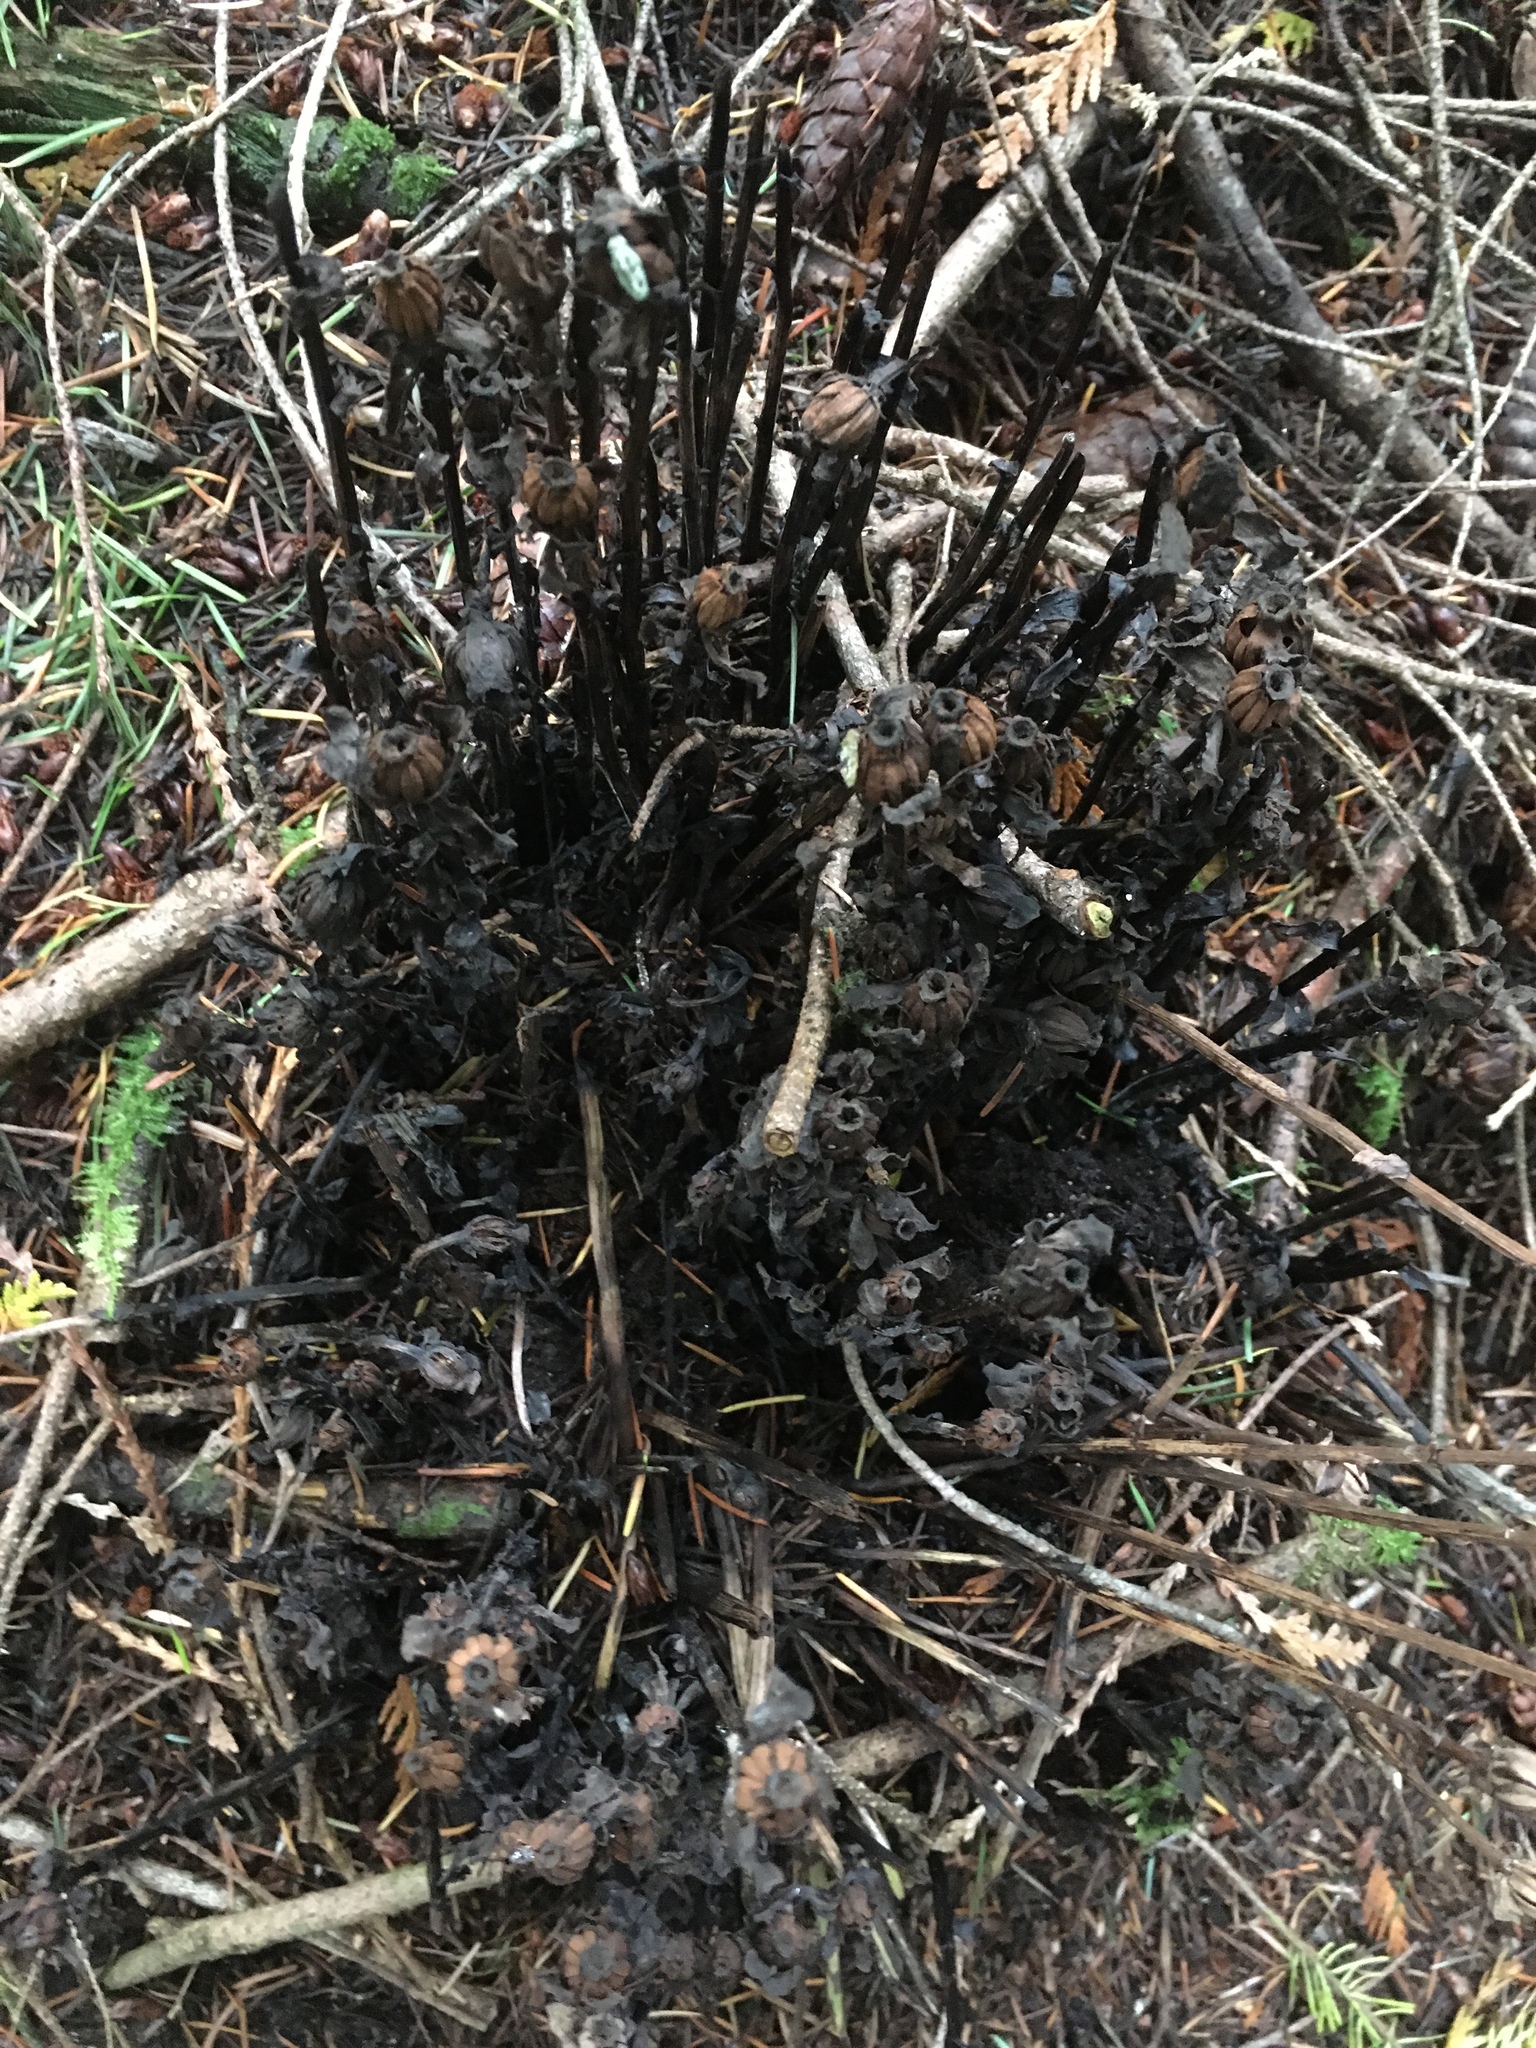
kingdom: Plantae
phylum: Tracheophyta
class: Magnoliopsida
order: Ericales
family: Ericaceae
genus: Monotropa
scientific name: Monotropa uniflora
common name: Convulsion root
